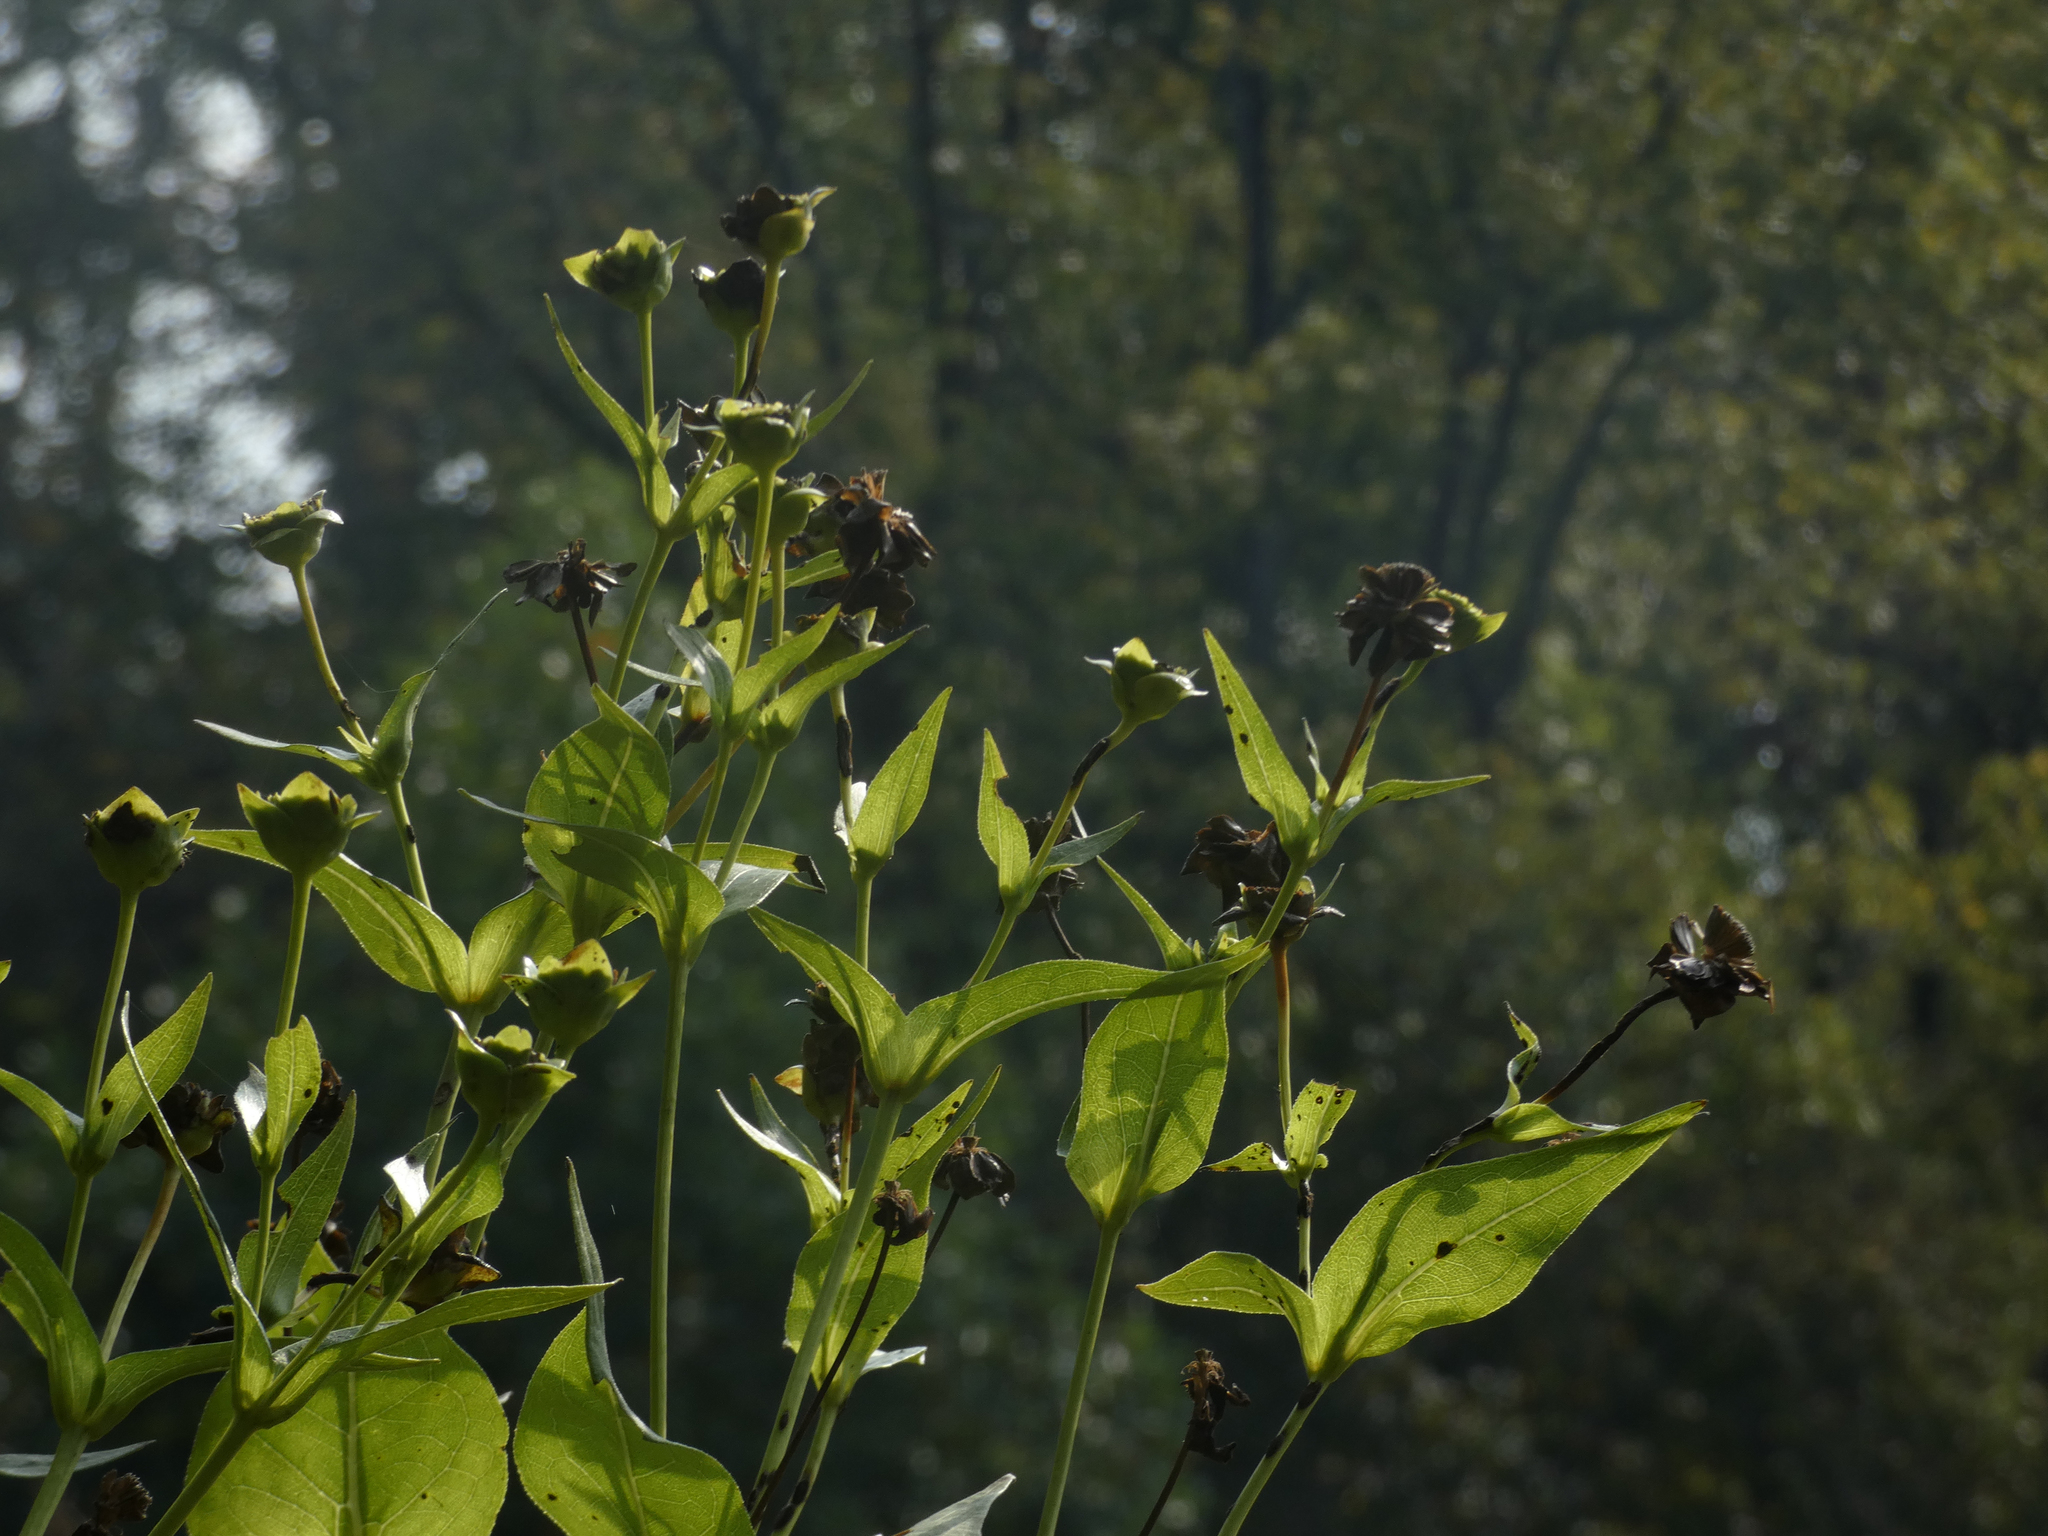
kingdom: Plantae
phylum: Tracheophyta
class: Magnoliopsida
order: Asterales
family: Asteraceae
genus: Silphium
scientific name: Silphium perfoliatum
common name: Cup-plant
